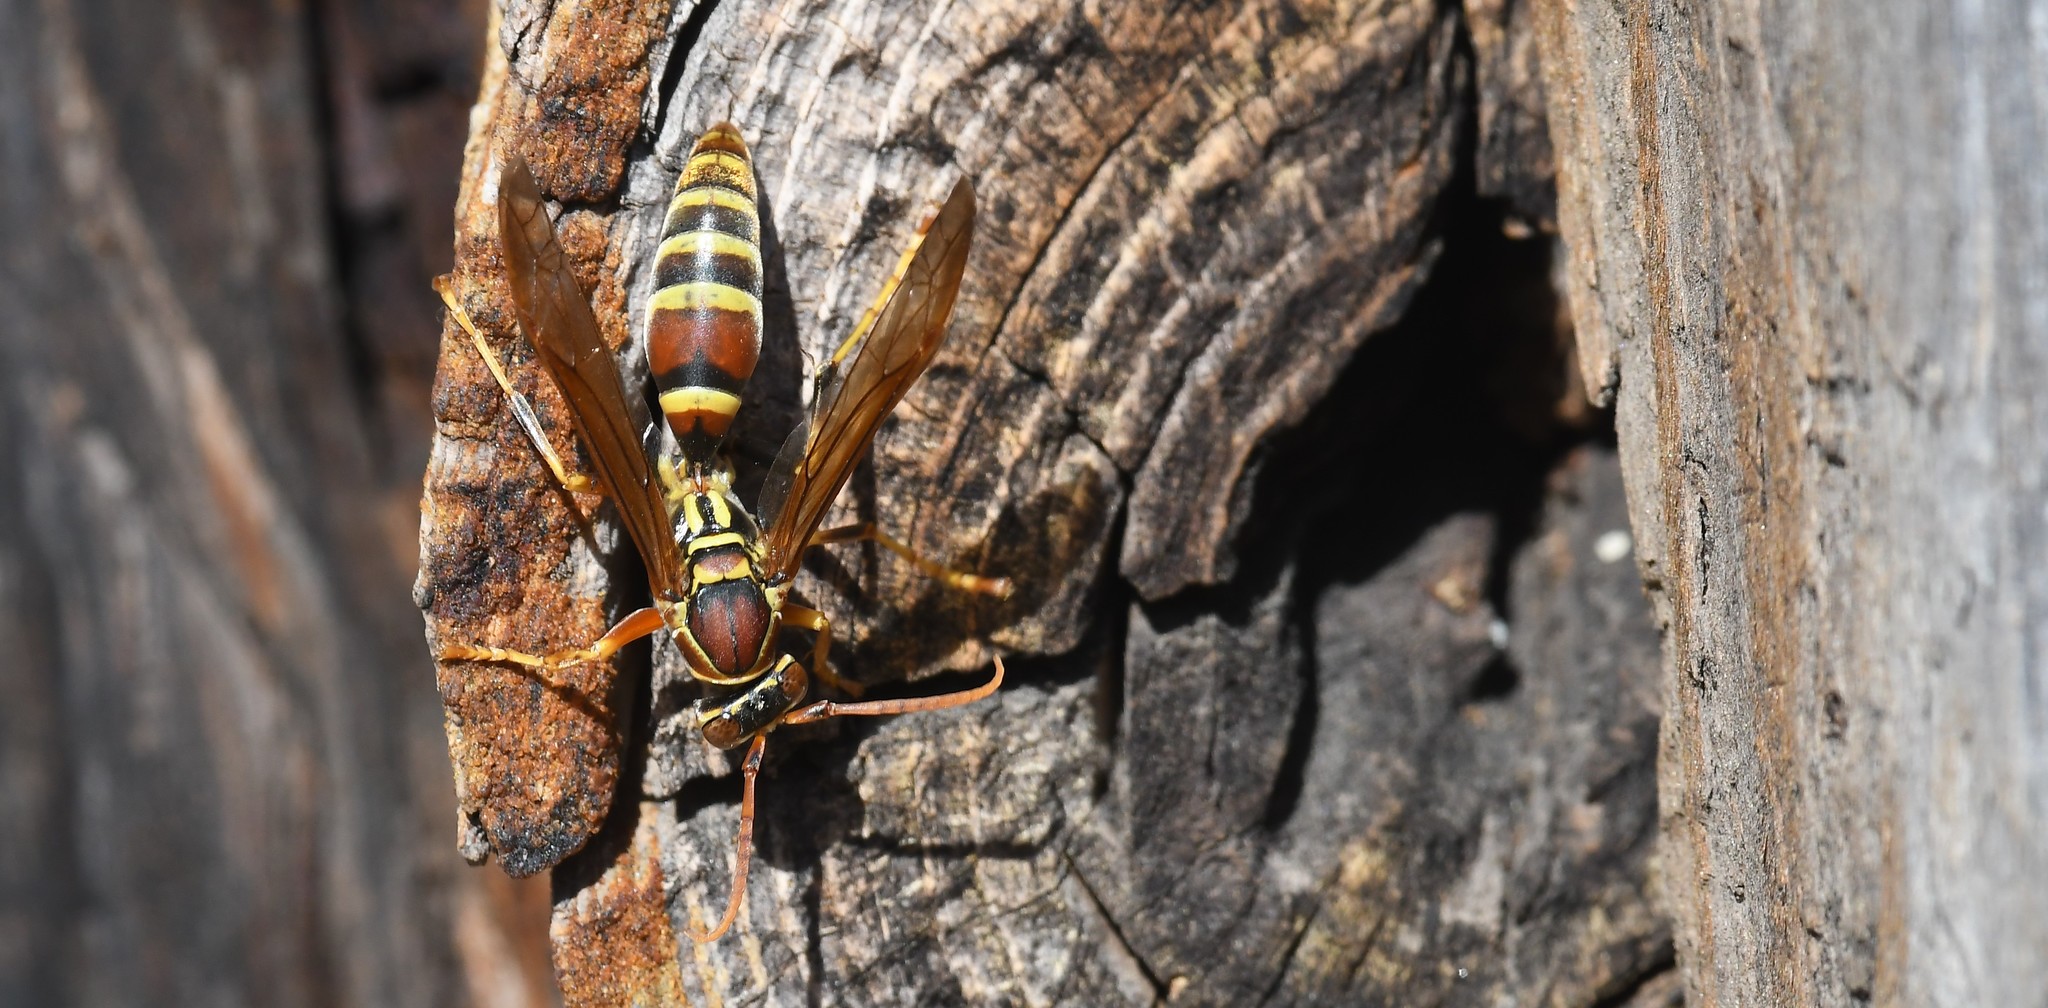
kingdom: Animalia
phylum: Arthropoda
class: Insecta
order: Hymenoptera
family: Eumenidae
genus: Polistes
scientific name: Polistes exclamans
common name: Paper wasp
